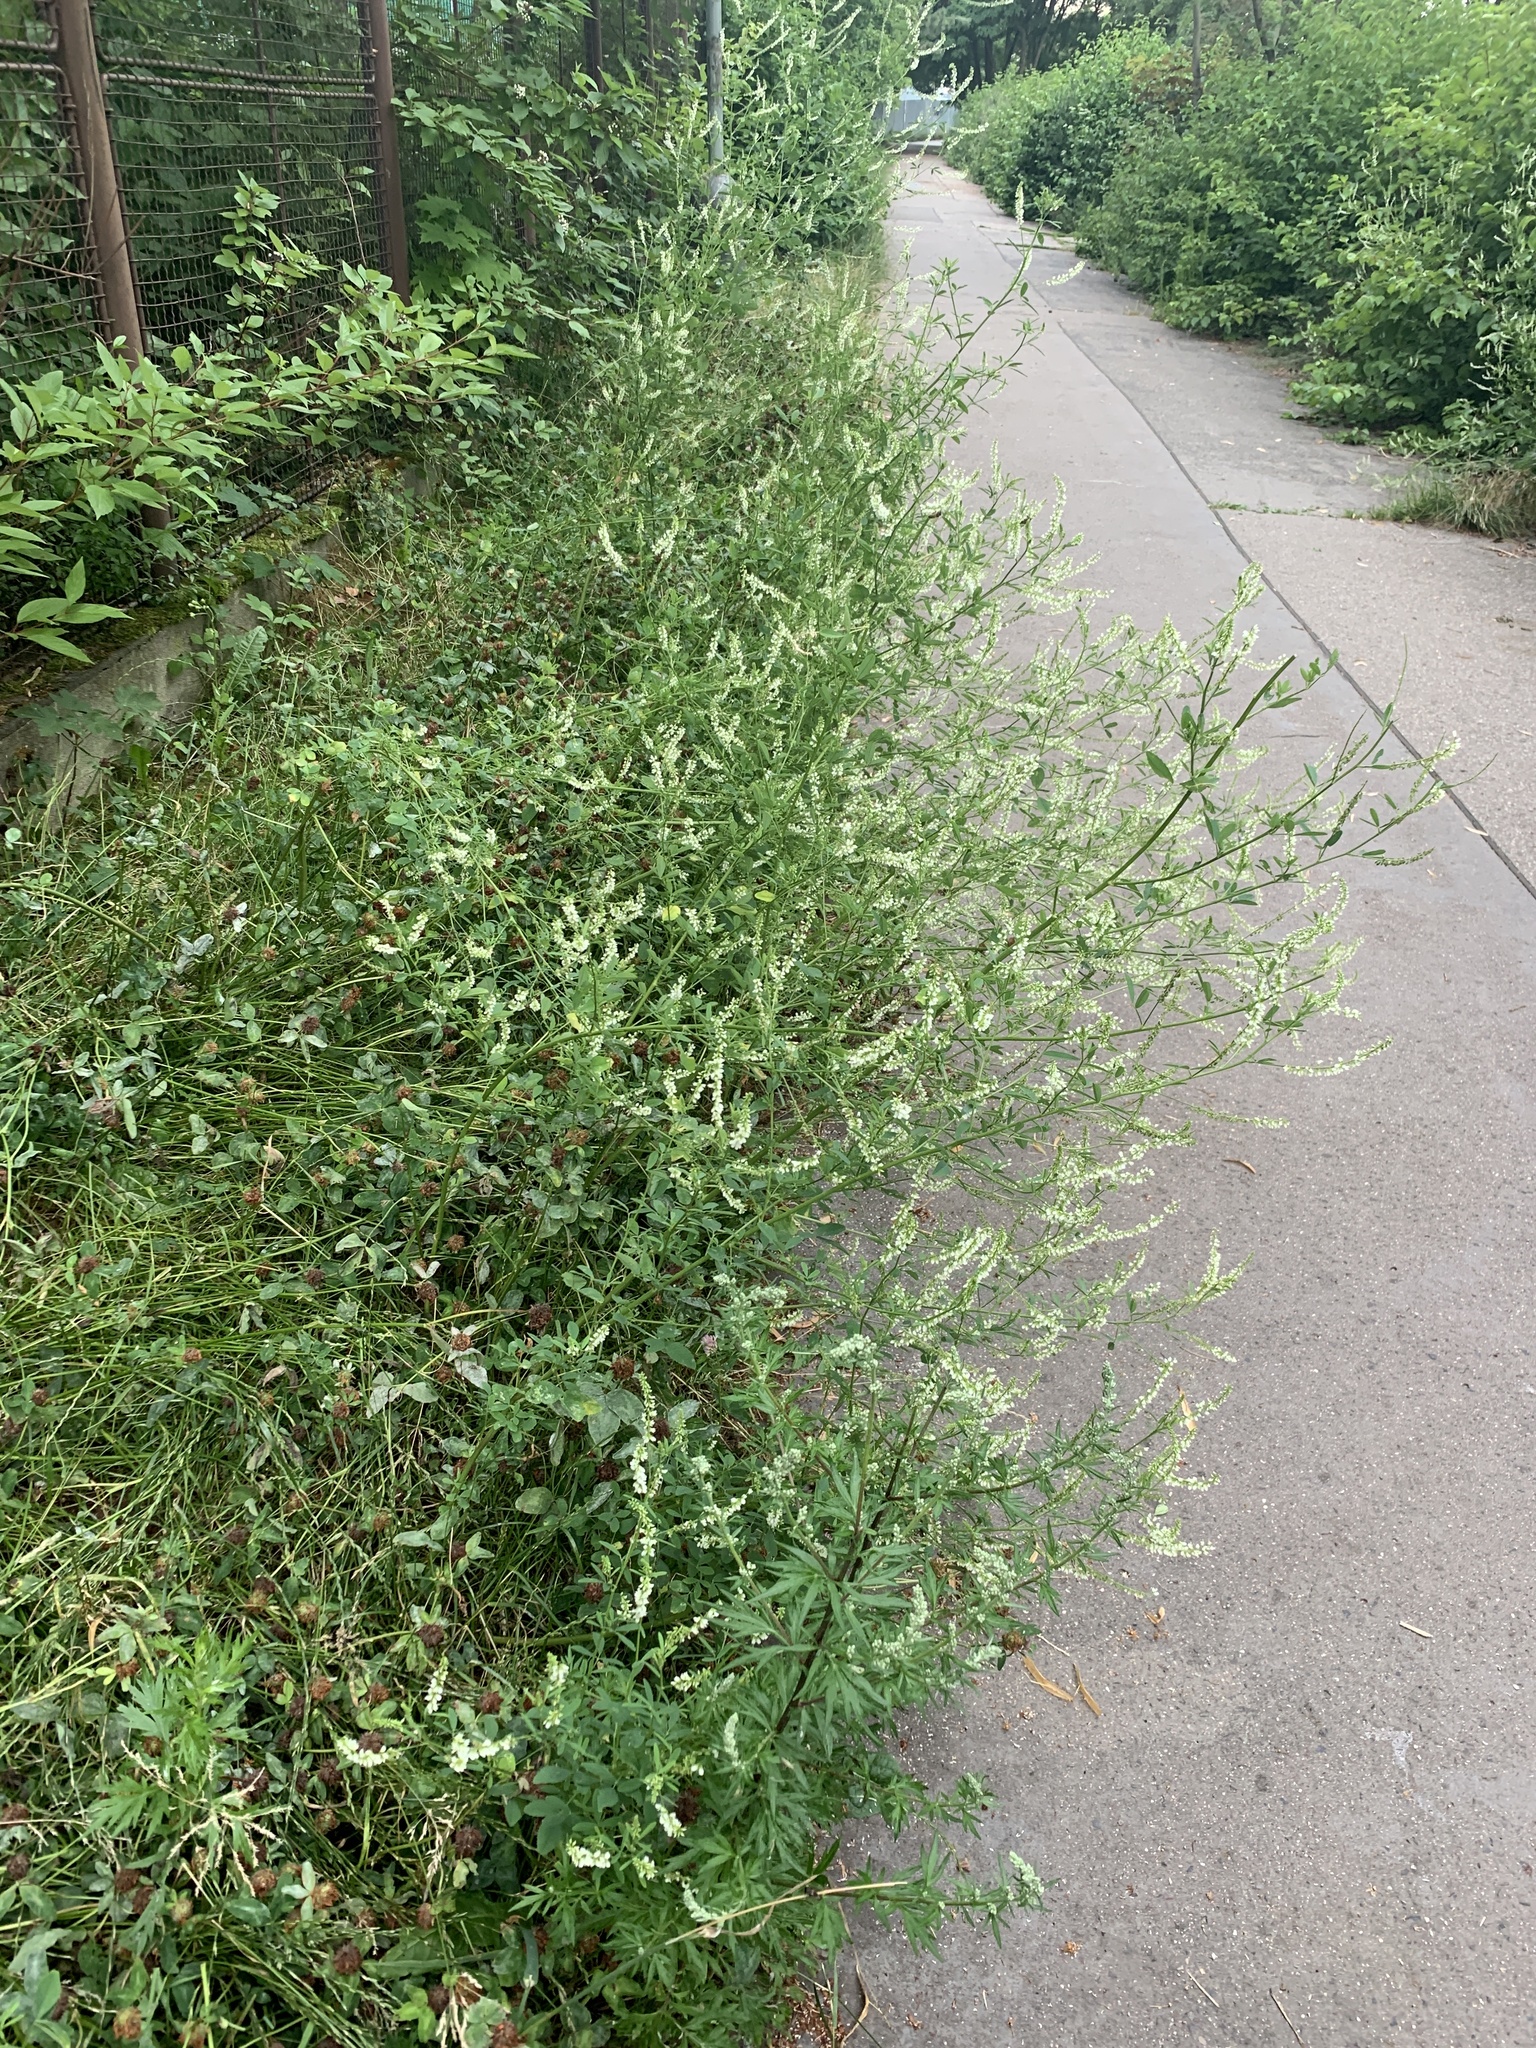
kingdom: Plantae
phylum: Tracheophyta
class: Magnoliopsida
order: Fabales
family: Fabaceae
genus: Melilotus
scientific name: Melilotus albus
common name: White melilot
